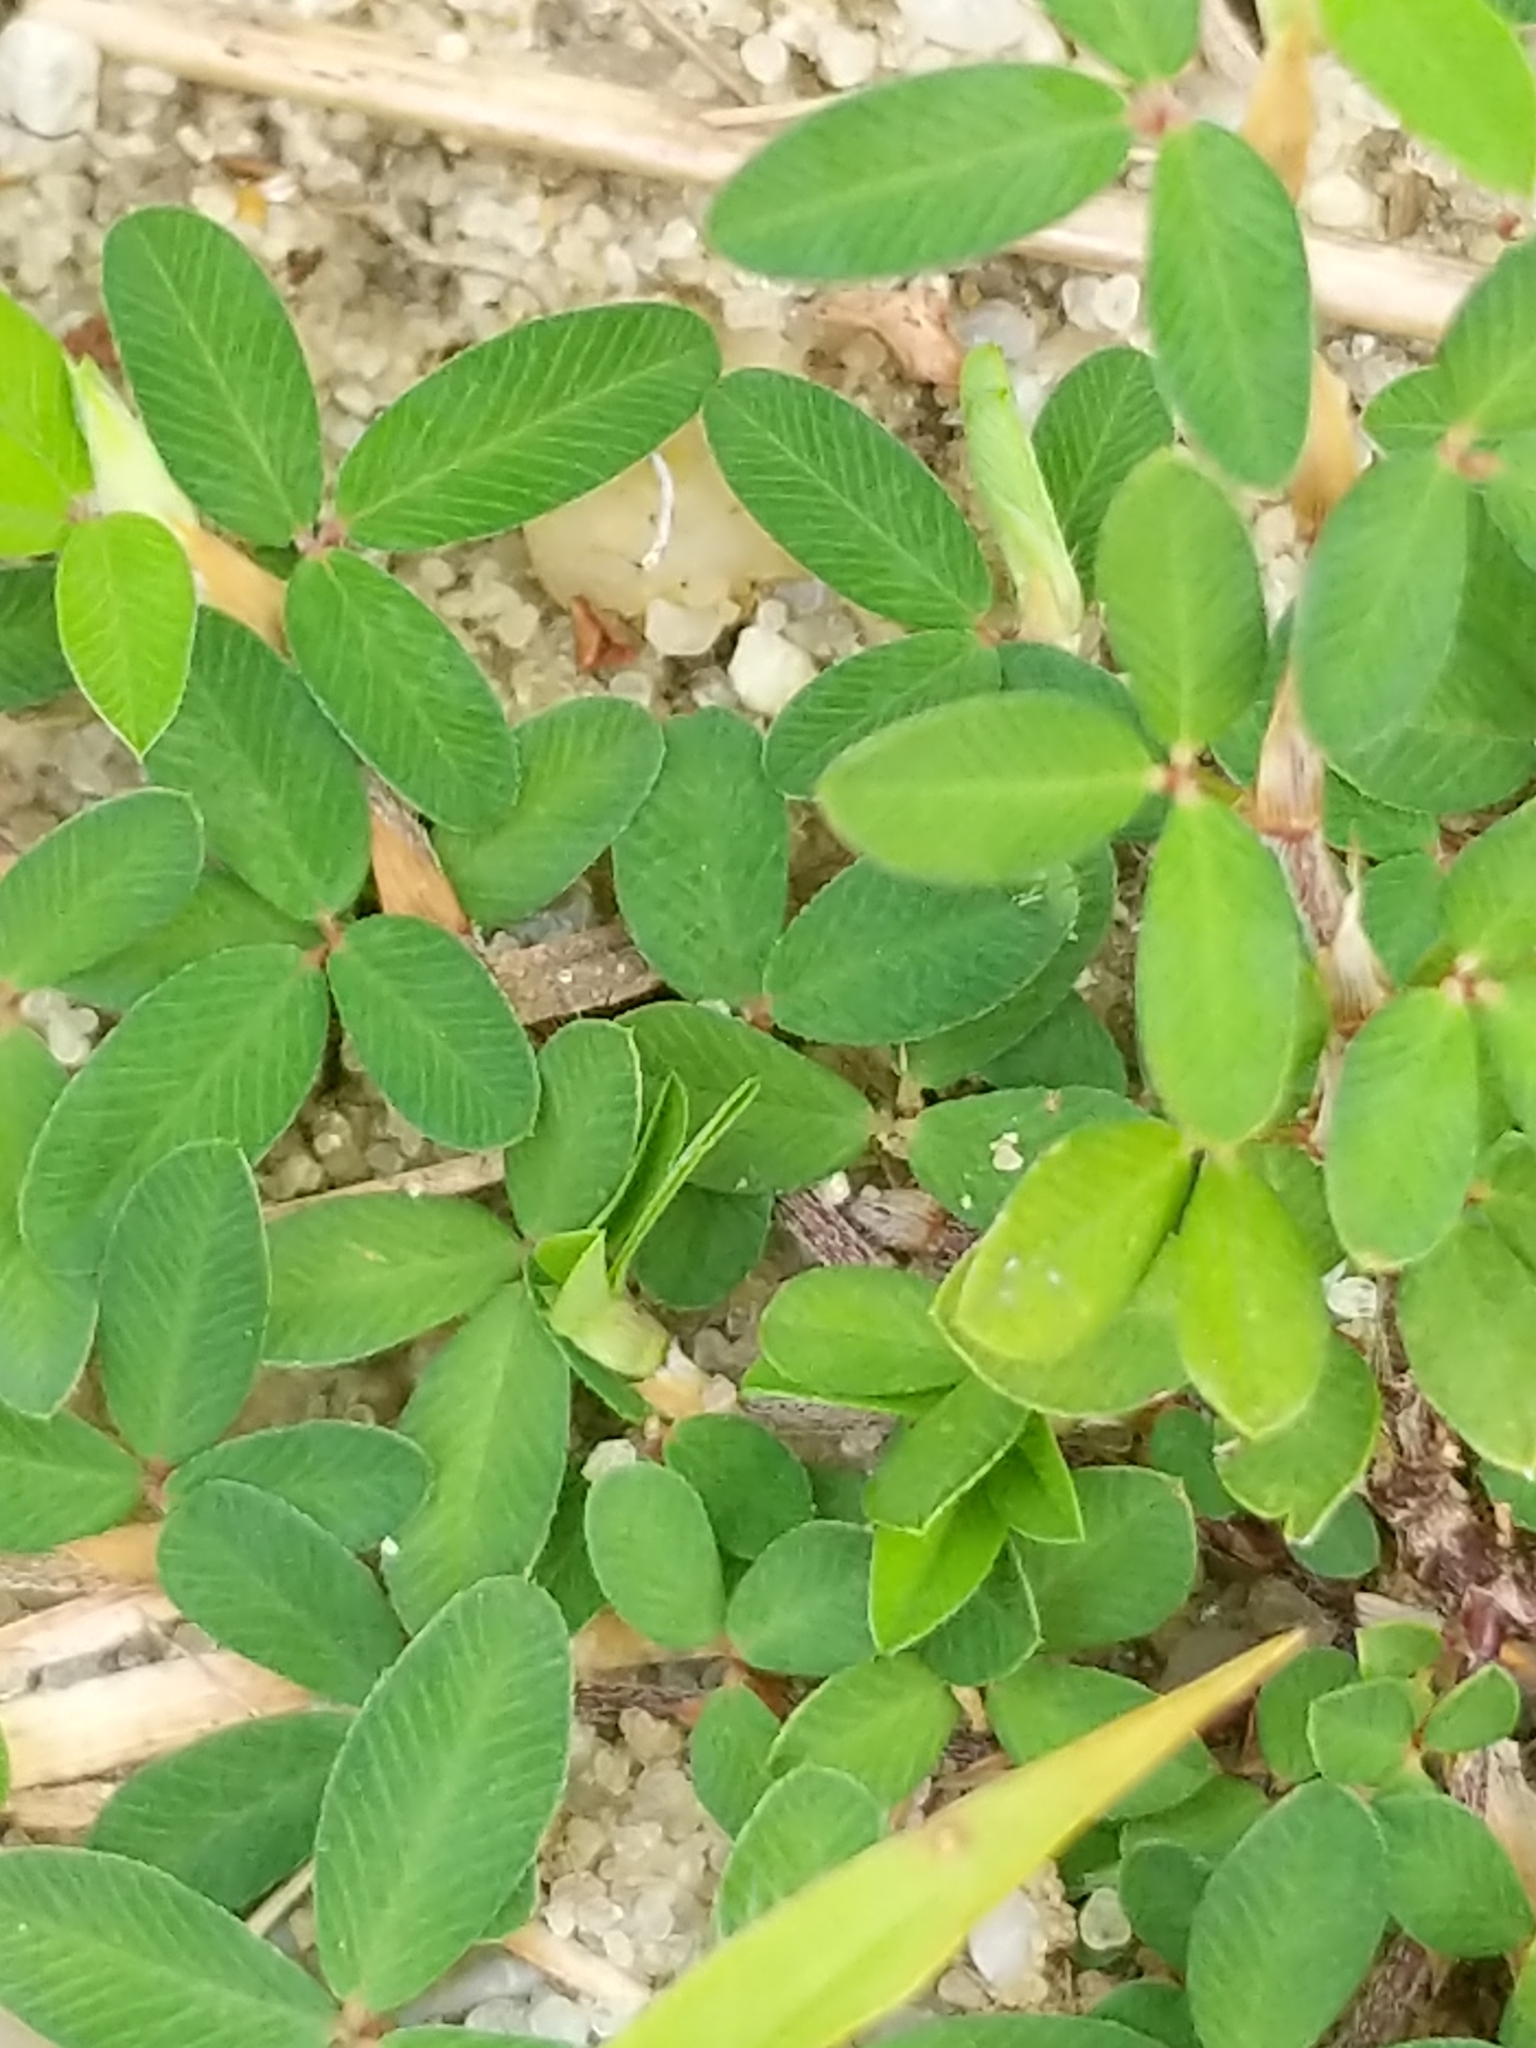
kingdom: Plantae
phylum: Tracheophyta
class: Magnoliopsida
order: Fabales
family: Fabaceae
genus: Kummerowia
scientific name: Kummerowia striata
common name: Japanese clover
